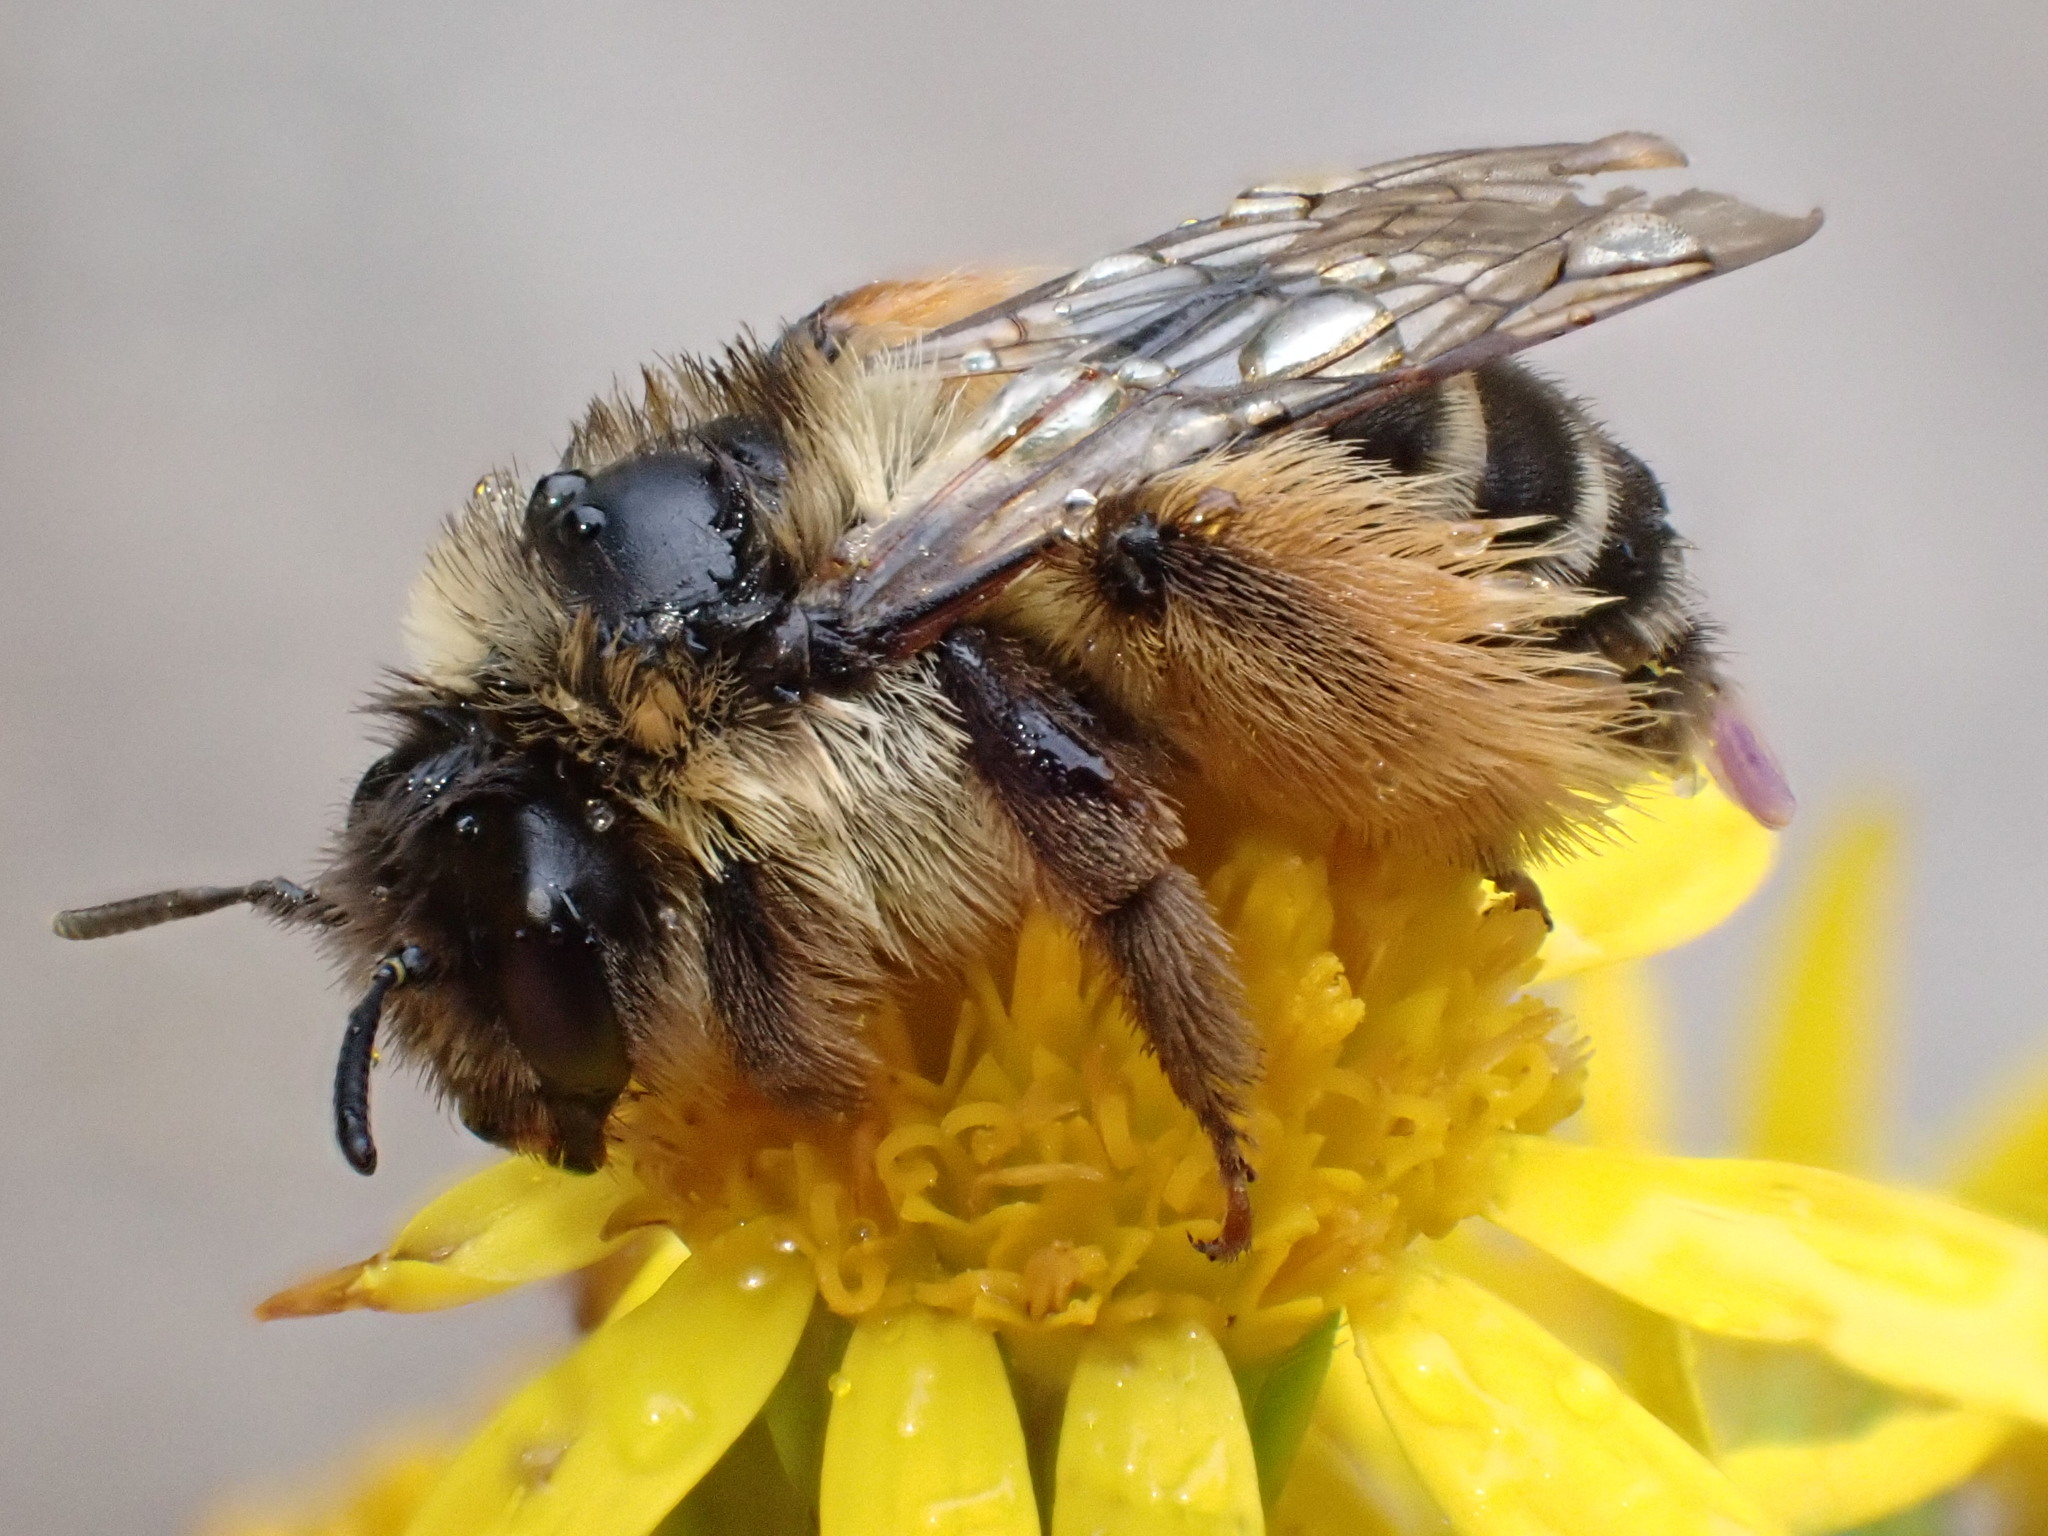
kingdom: Animalia
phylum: Arthropoda
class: Insecta
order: Hymenoptera
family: Melittidae
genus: Dasypoda
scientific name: Dasypoda hirtipes
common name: Pantaloon bee
